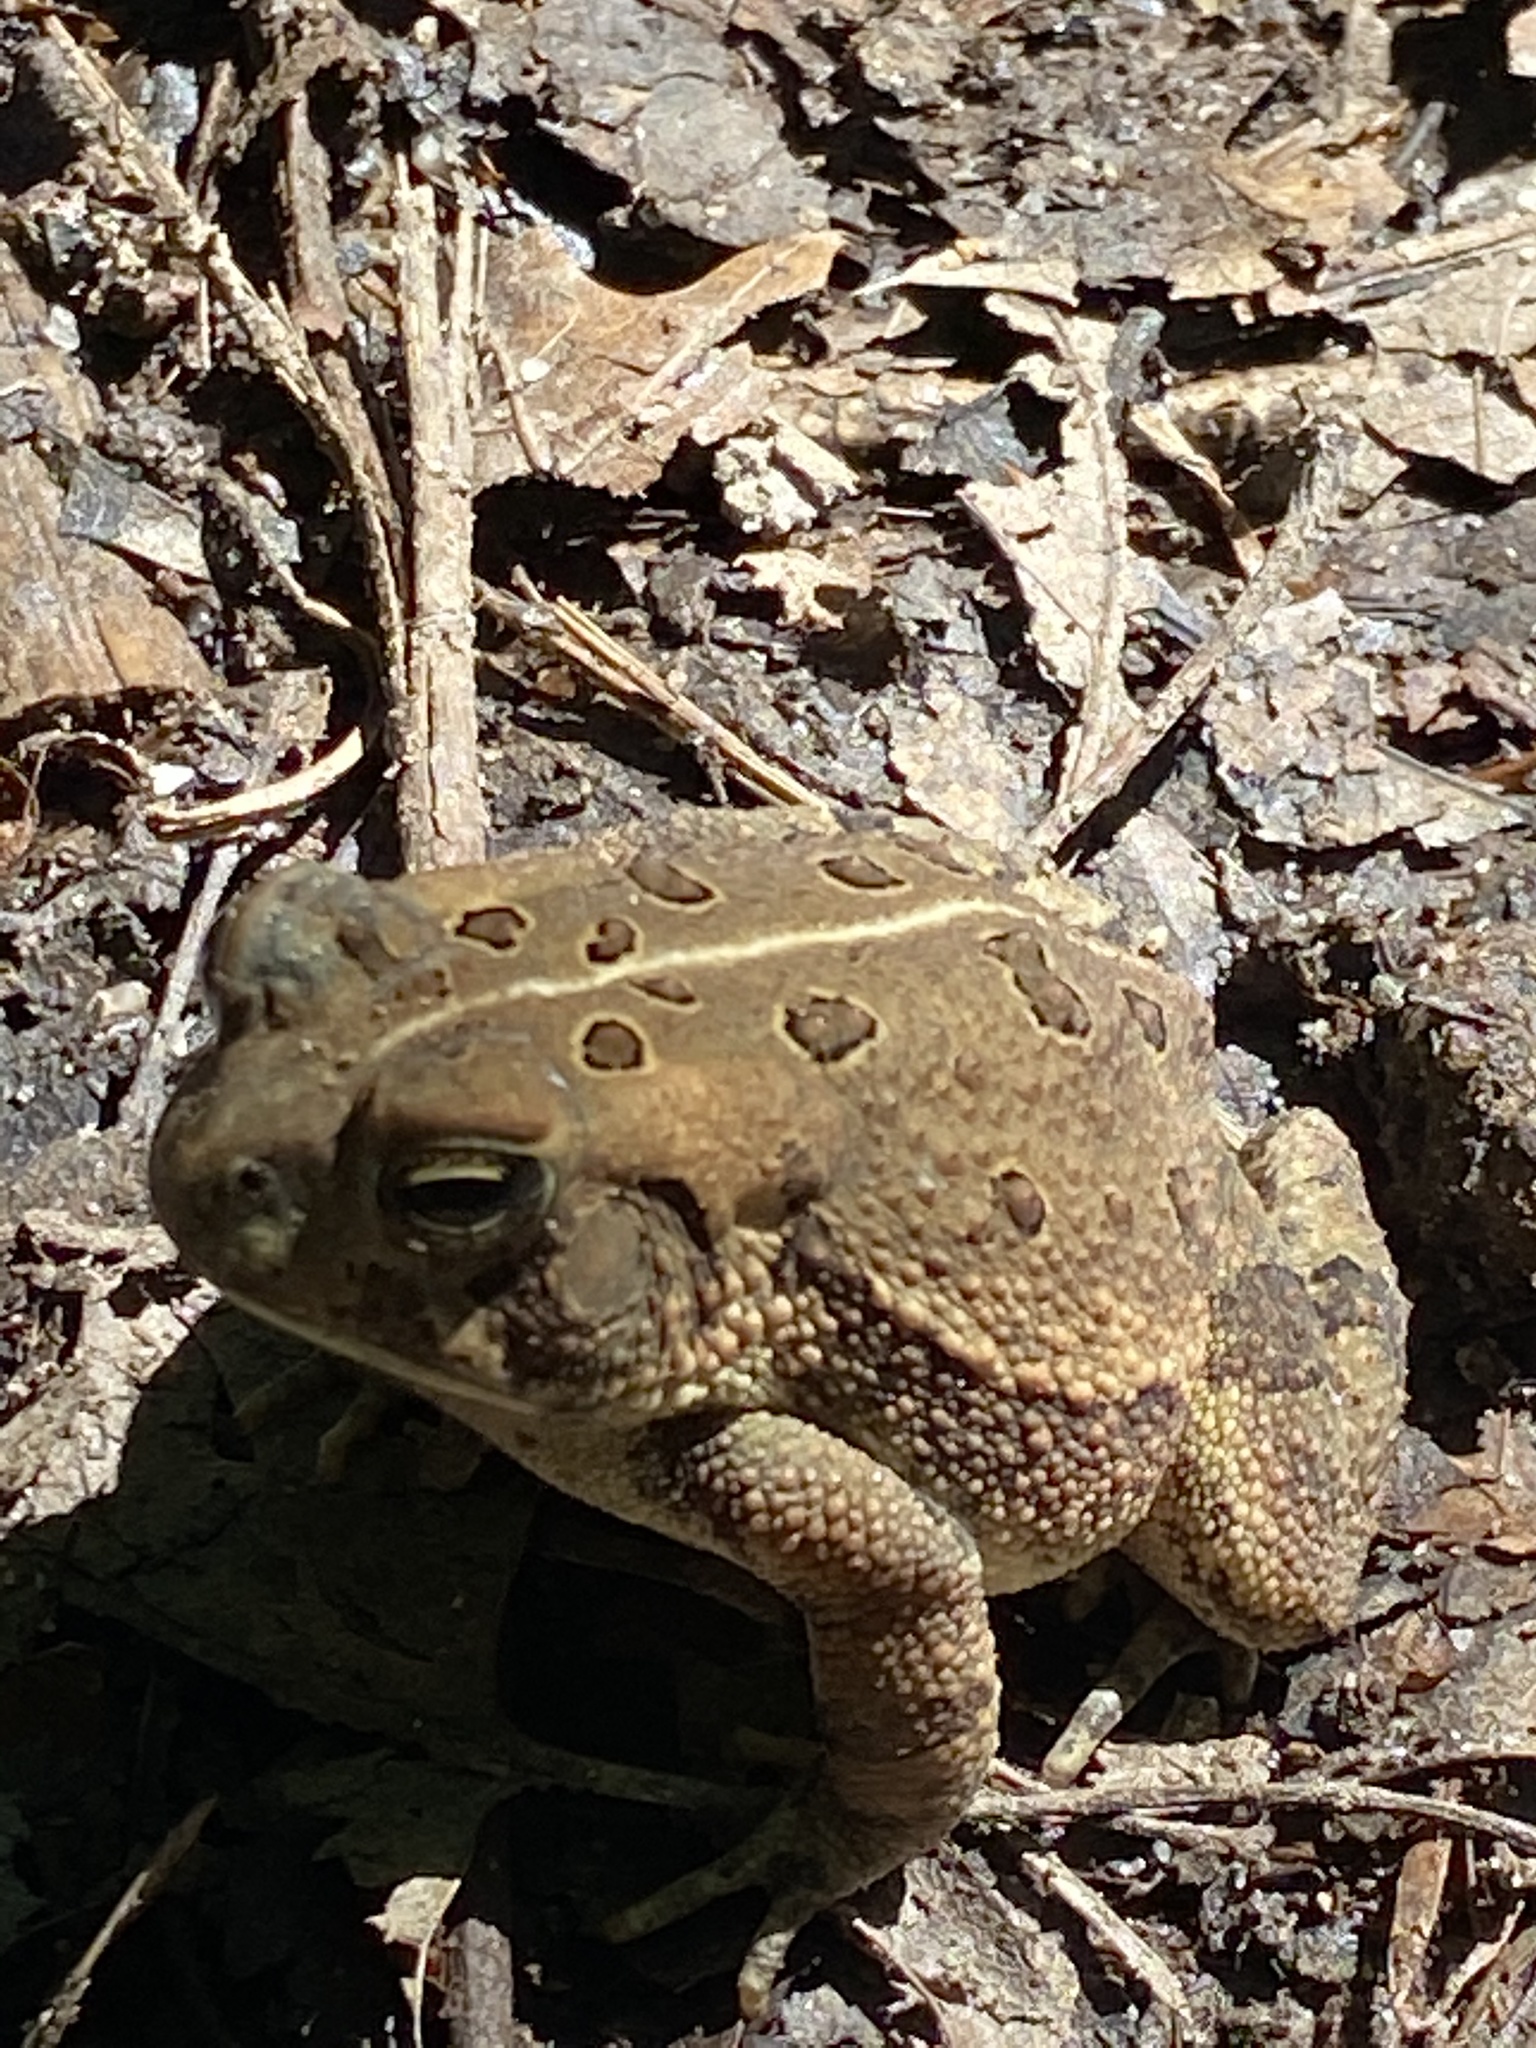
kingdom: Animalia
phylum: Chordata
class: Amphibia
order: Anura
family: Bufonidae
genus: Anaxyrus
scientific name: Anaxyrus fowleri
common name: Fowler's toad
